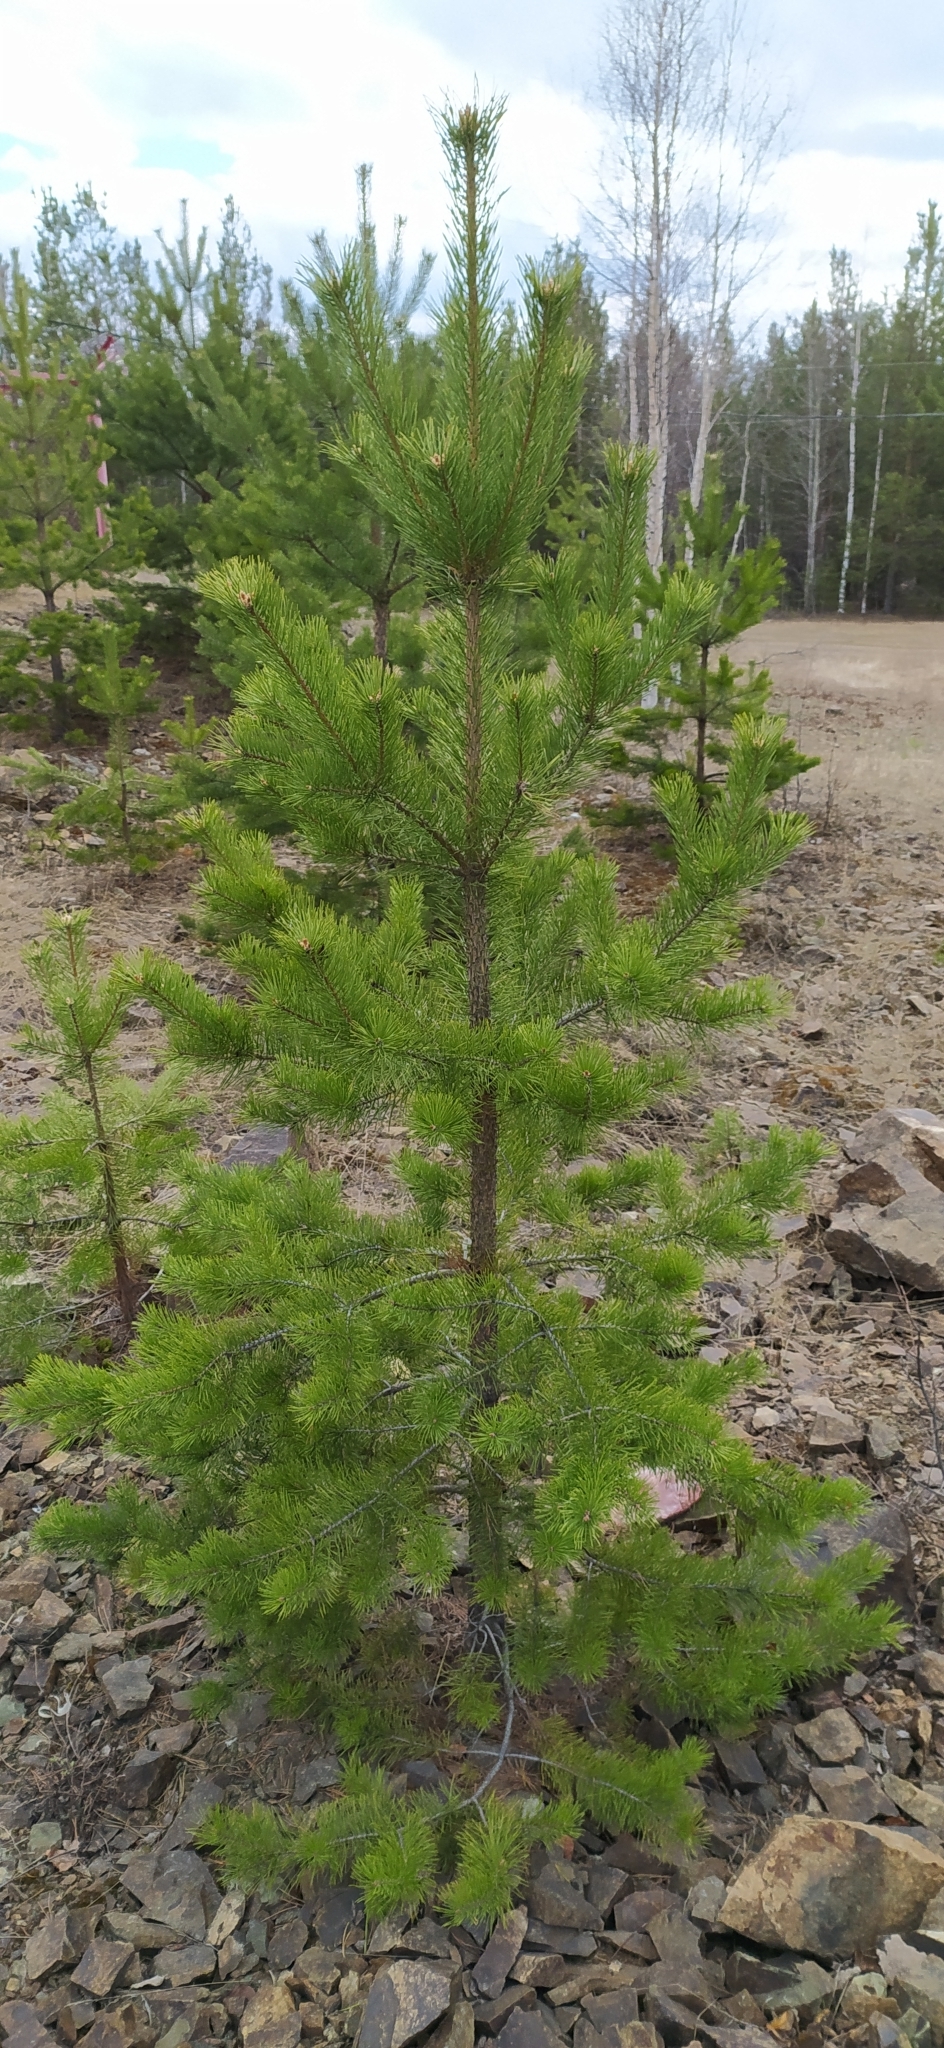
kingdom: Plantae
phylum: Tracheophyta
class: Pinopsida
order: Pinales
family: Pinaceae
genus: Pinus
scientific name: Pinus sylvestris
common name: Scots pine
